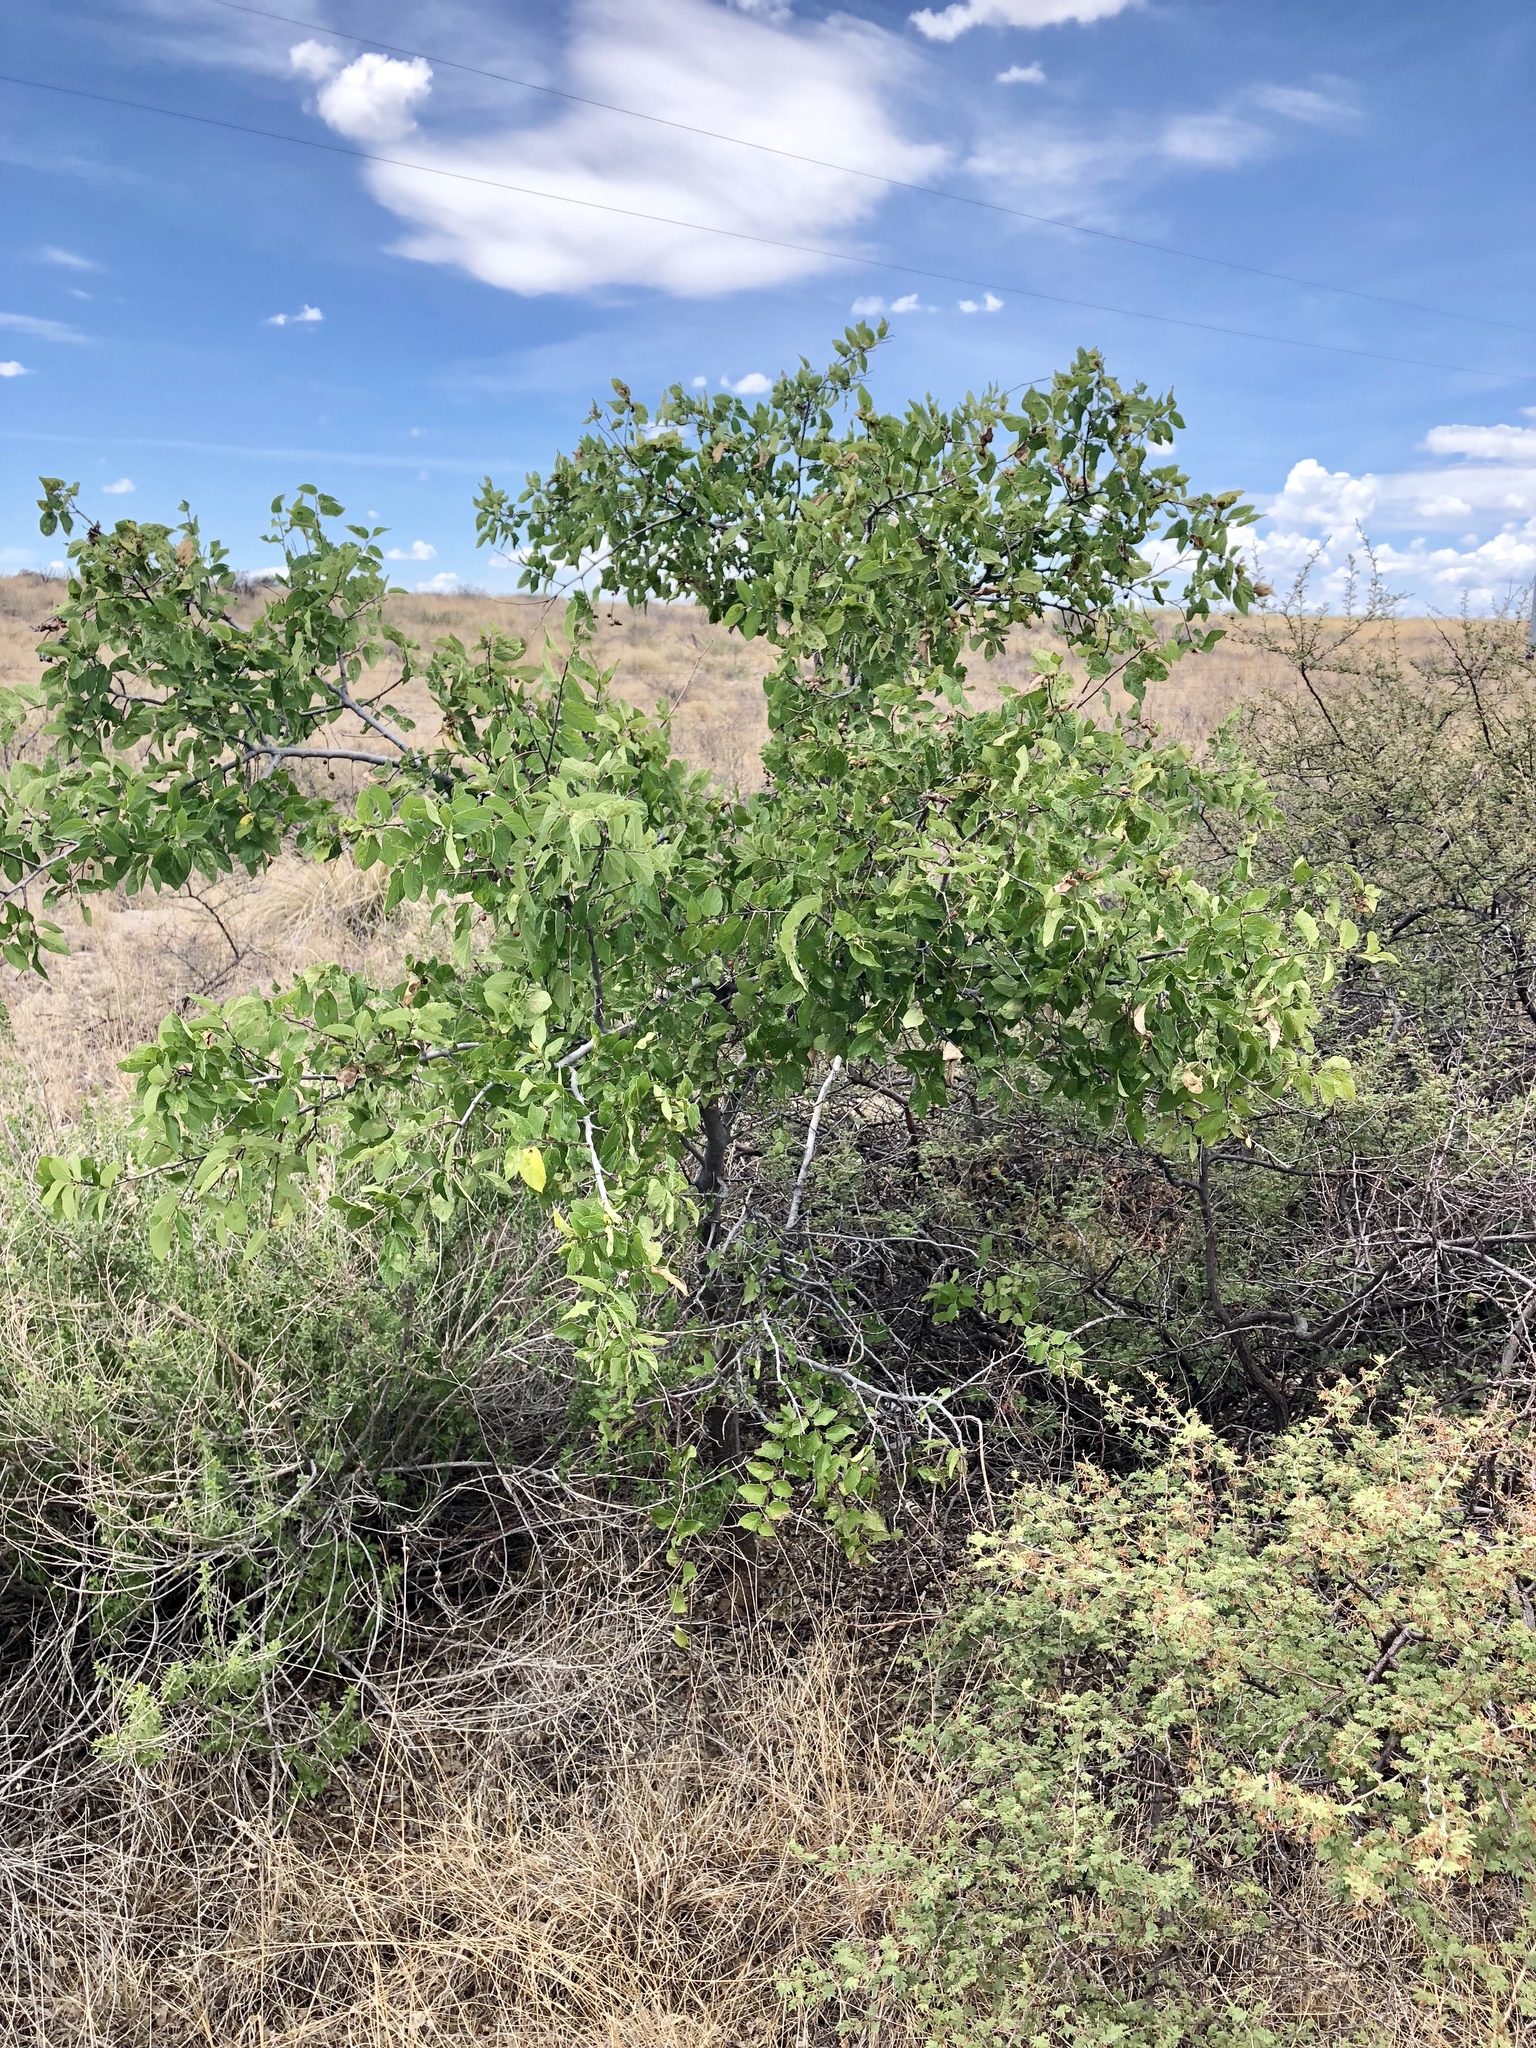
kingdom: Plantae
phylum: Tracheophyta
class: Magnoliopsida
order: Rosales
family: Cannabaceae
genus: Celtis
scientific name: Celtis reticulata
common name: Netleaf hackberry
